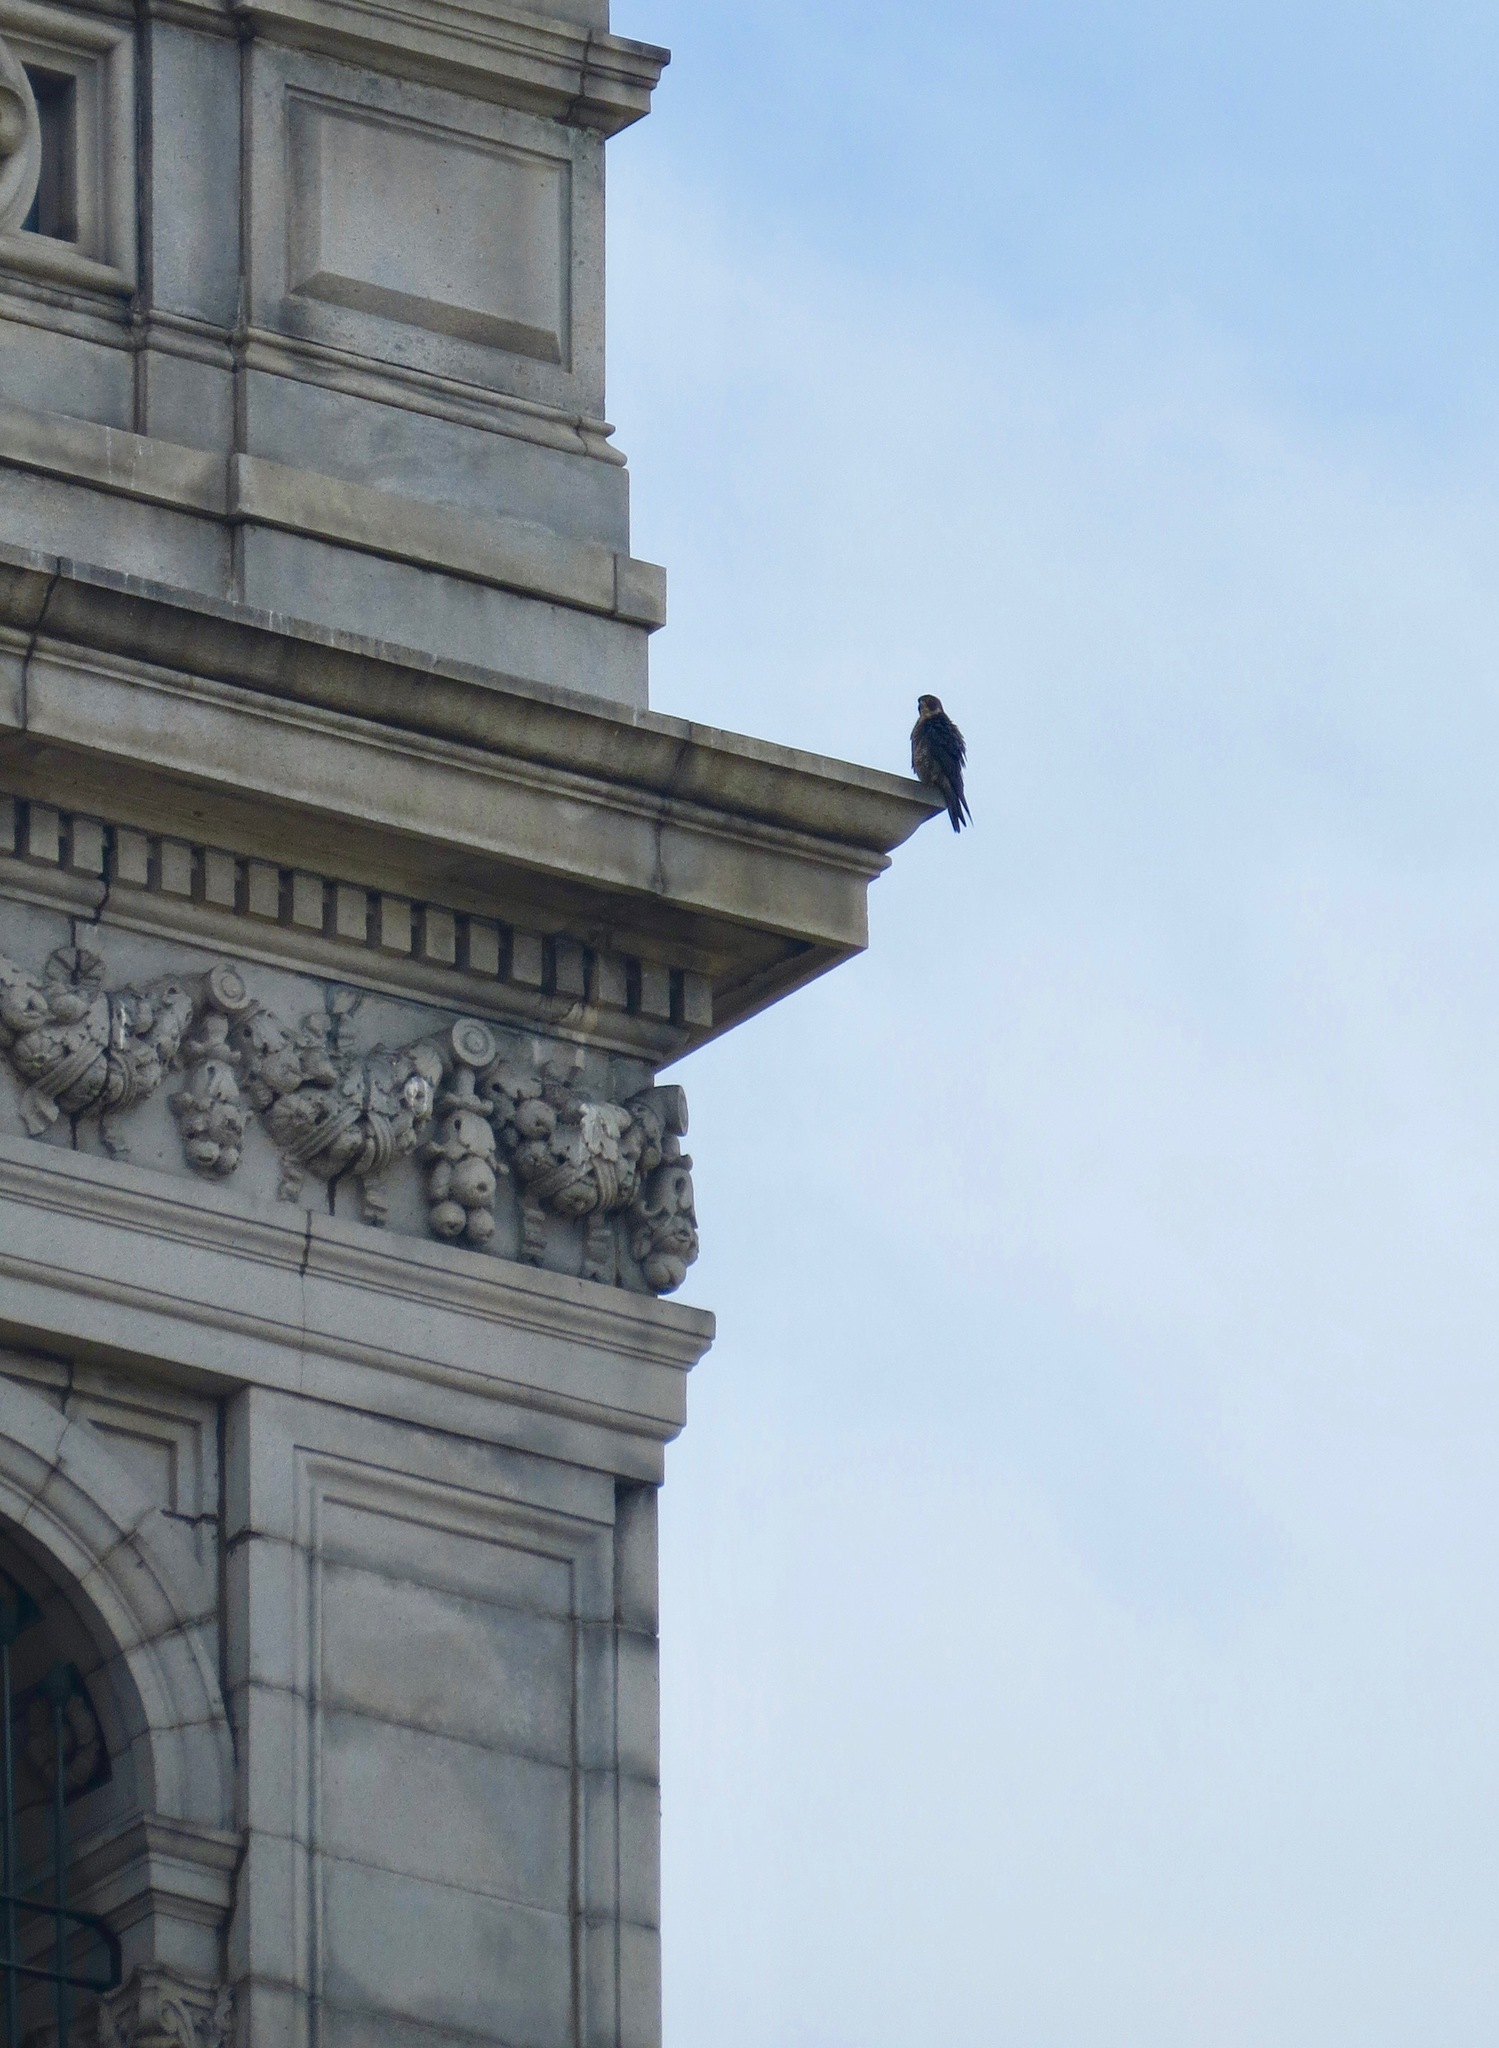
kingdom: Animalia
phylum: Chordata
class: Aves
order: Falconiformes
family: Falconidae
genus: Falco
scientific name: Falco peregrinus
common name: Peregrine falcon
